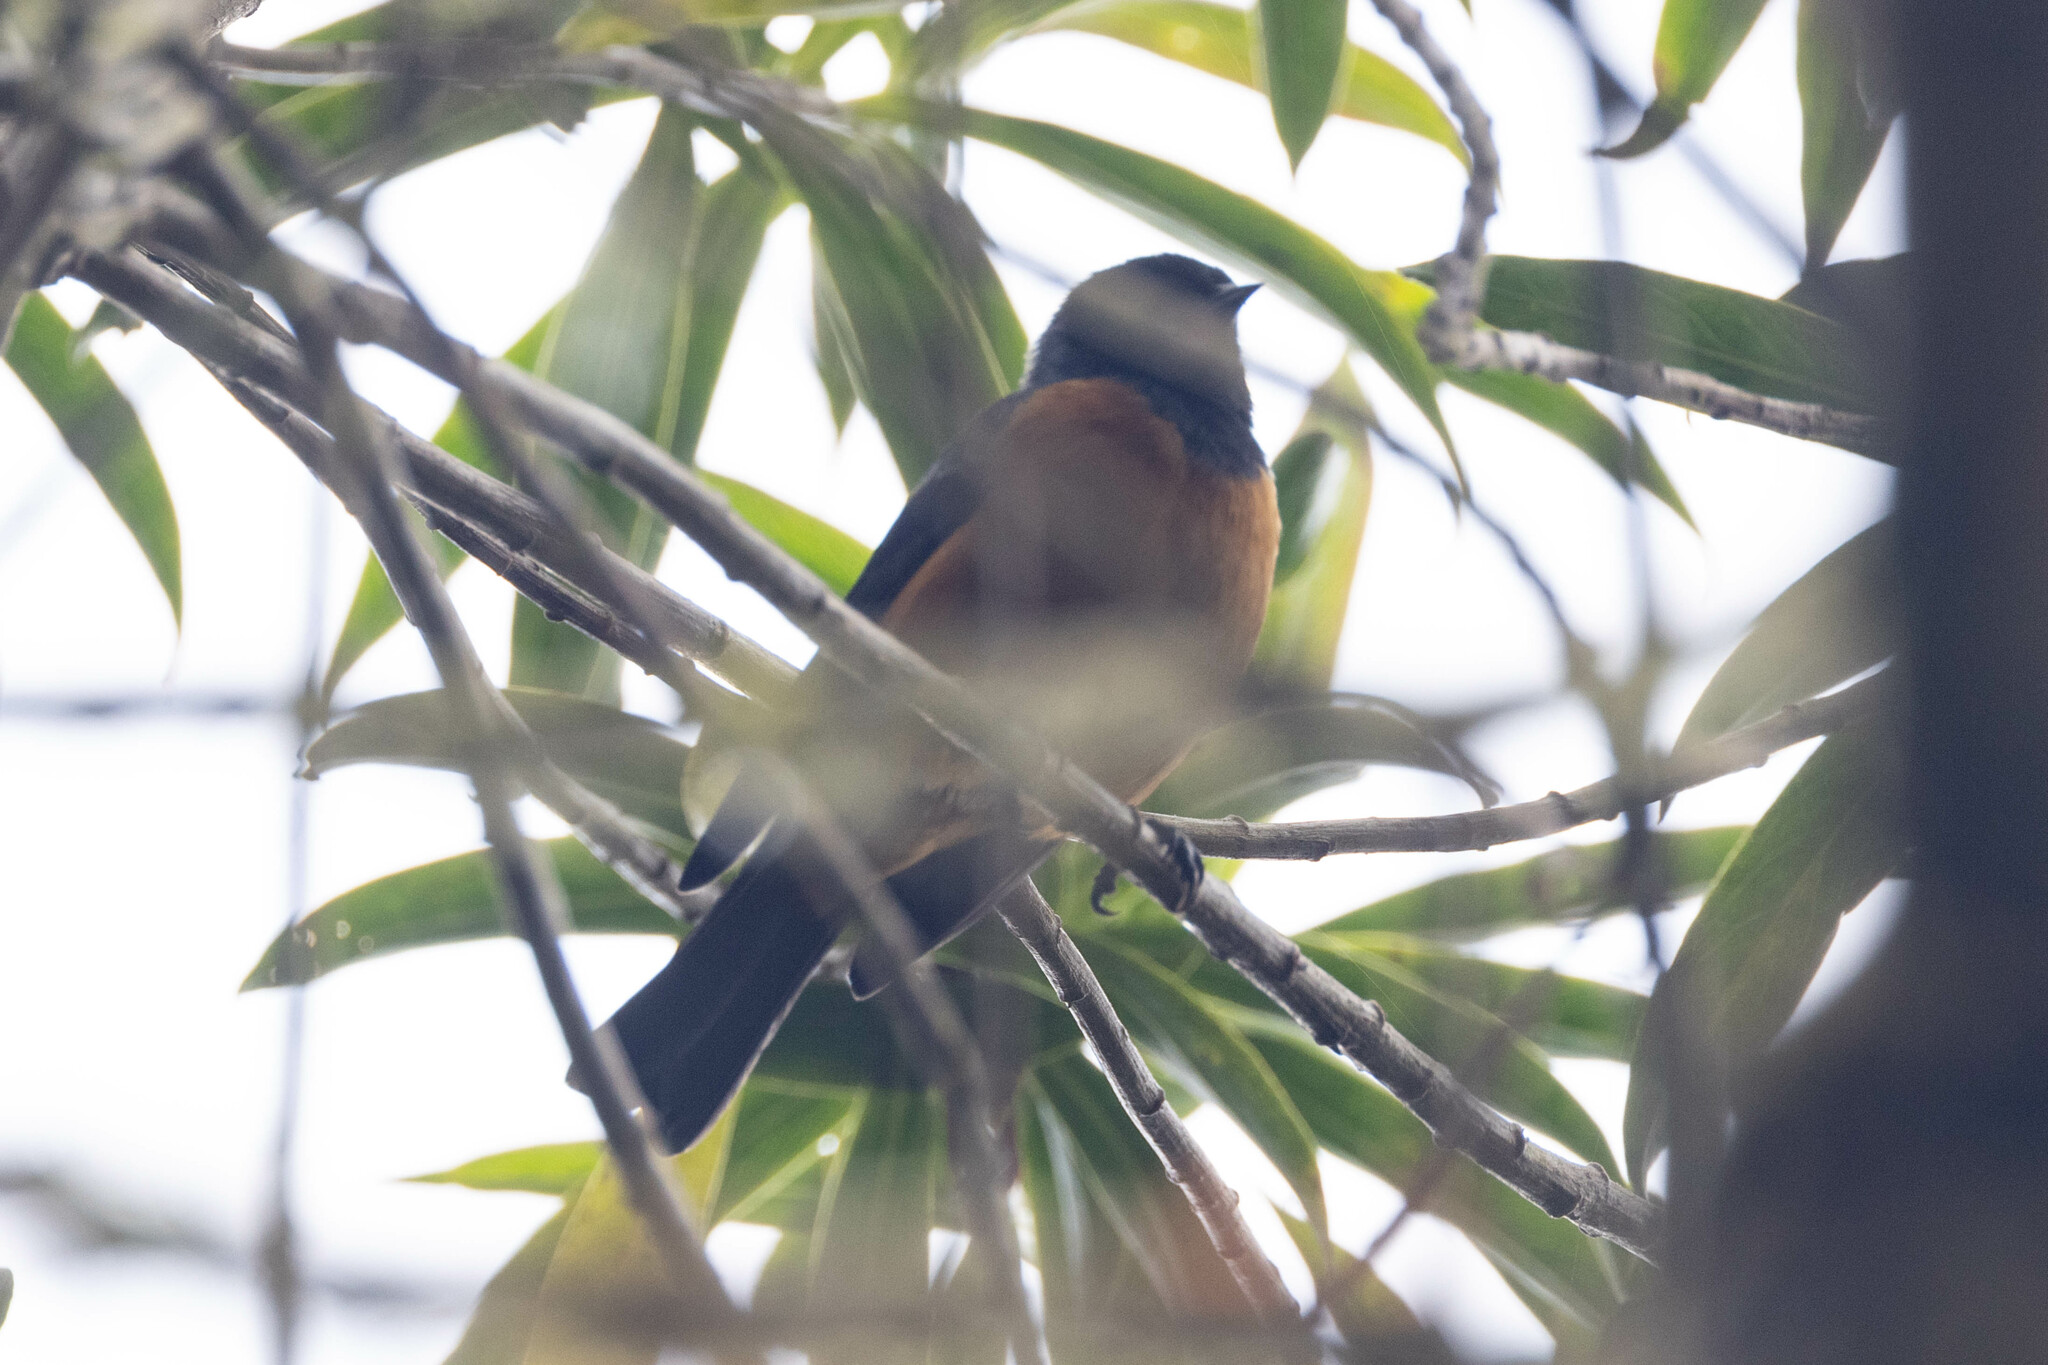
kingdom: Animalia
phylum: Chordata
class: Aves
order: Passeriformes
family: Thraupidae
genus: Conirostrum
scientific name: Conirostrum sitticolor
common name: Blue-backed conebill
